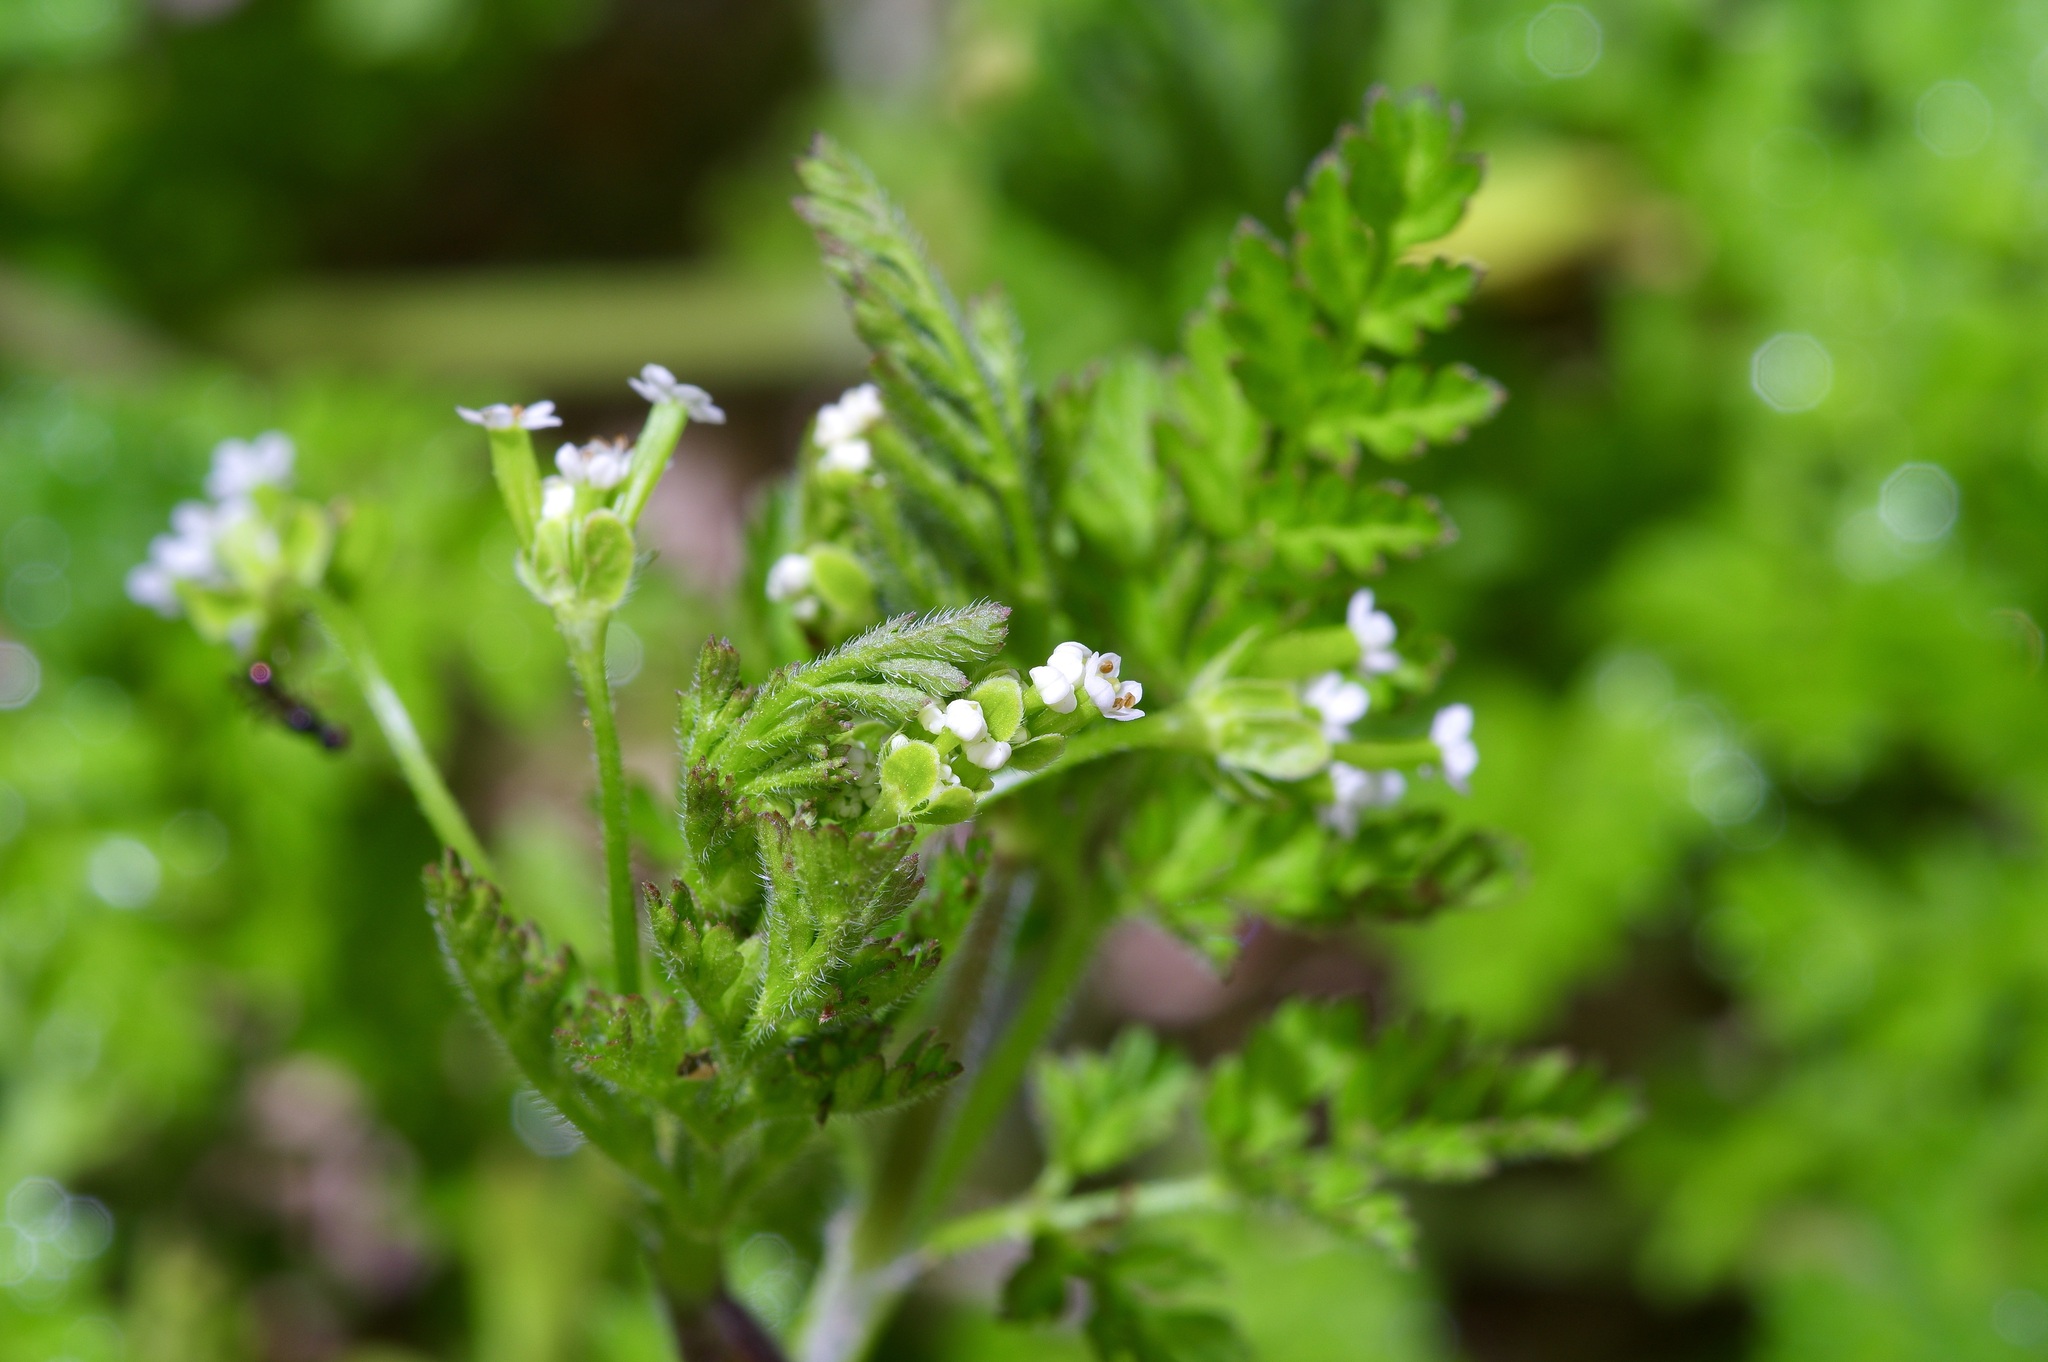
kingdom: Plantae
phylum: Tracheophyta
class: Magnoliopsida
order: Apiales
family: Apiaceae
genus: Chaerophyllum
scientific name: Chaerophyllum tainturieri
